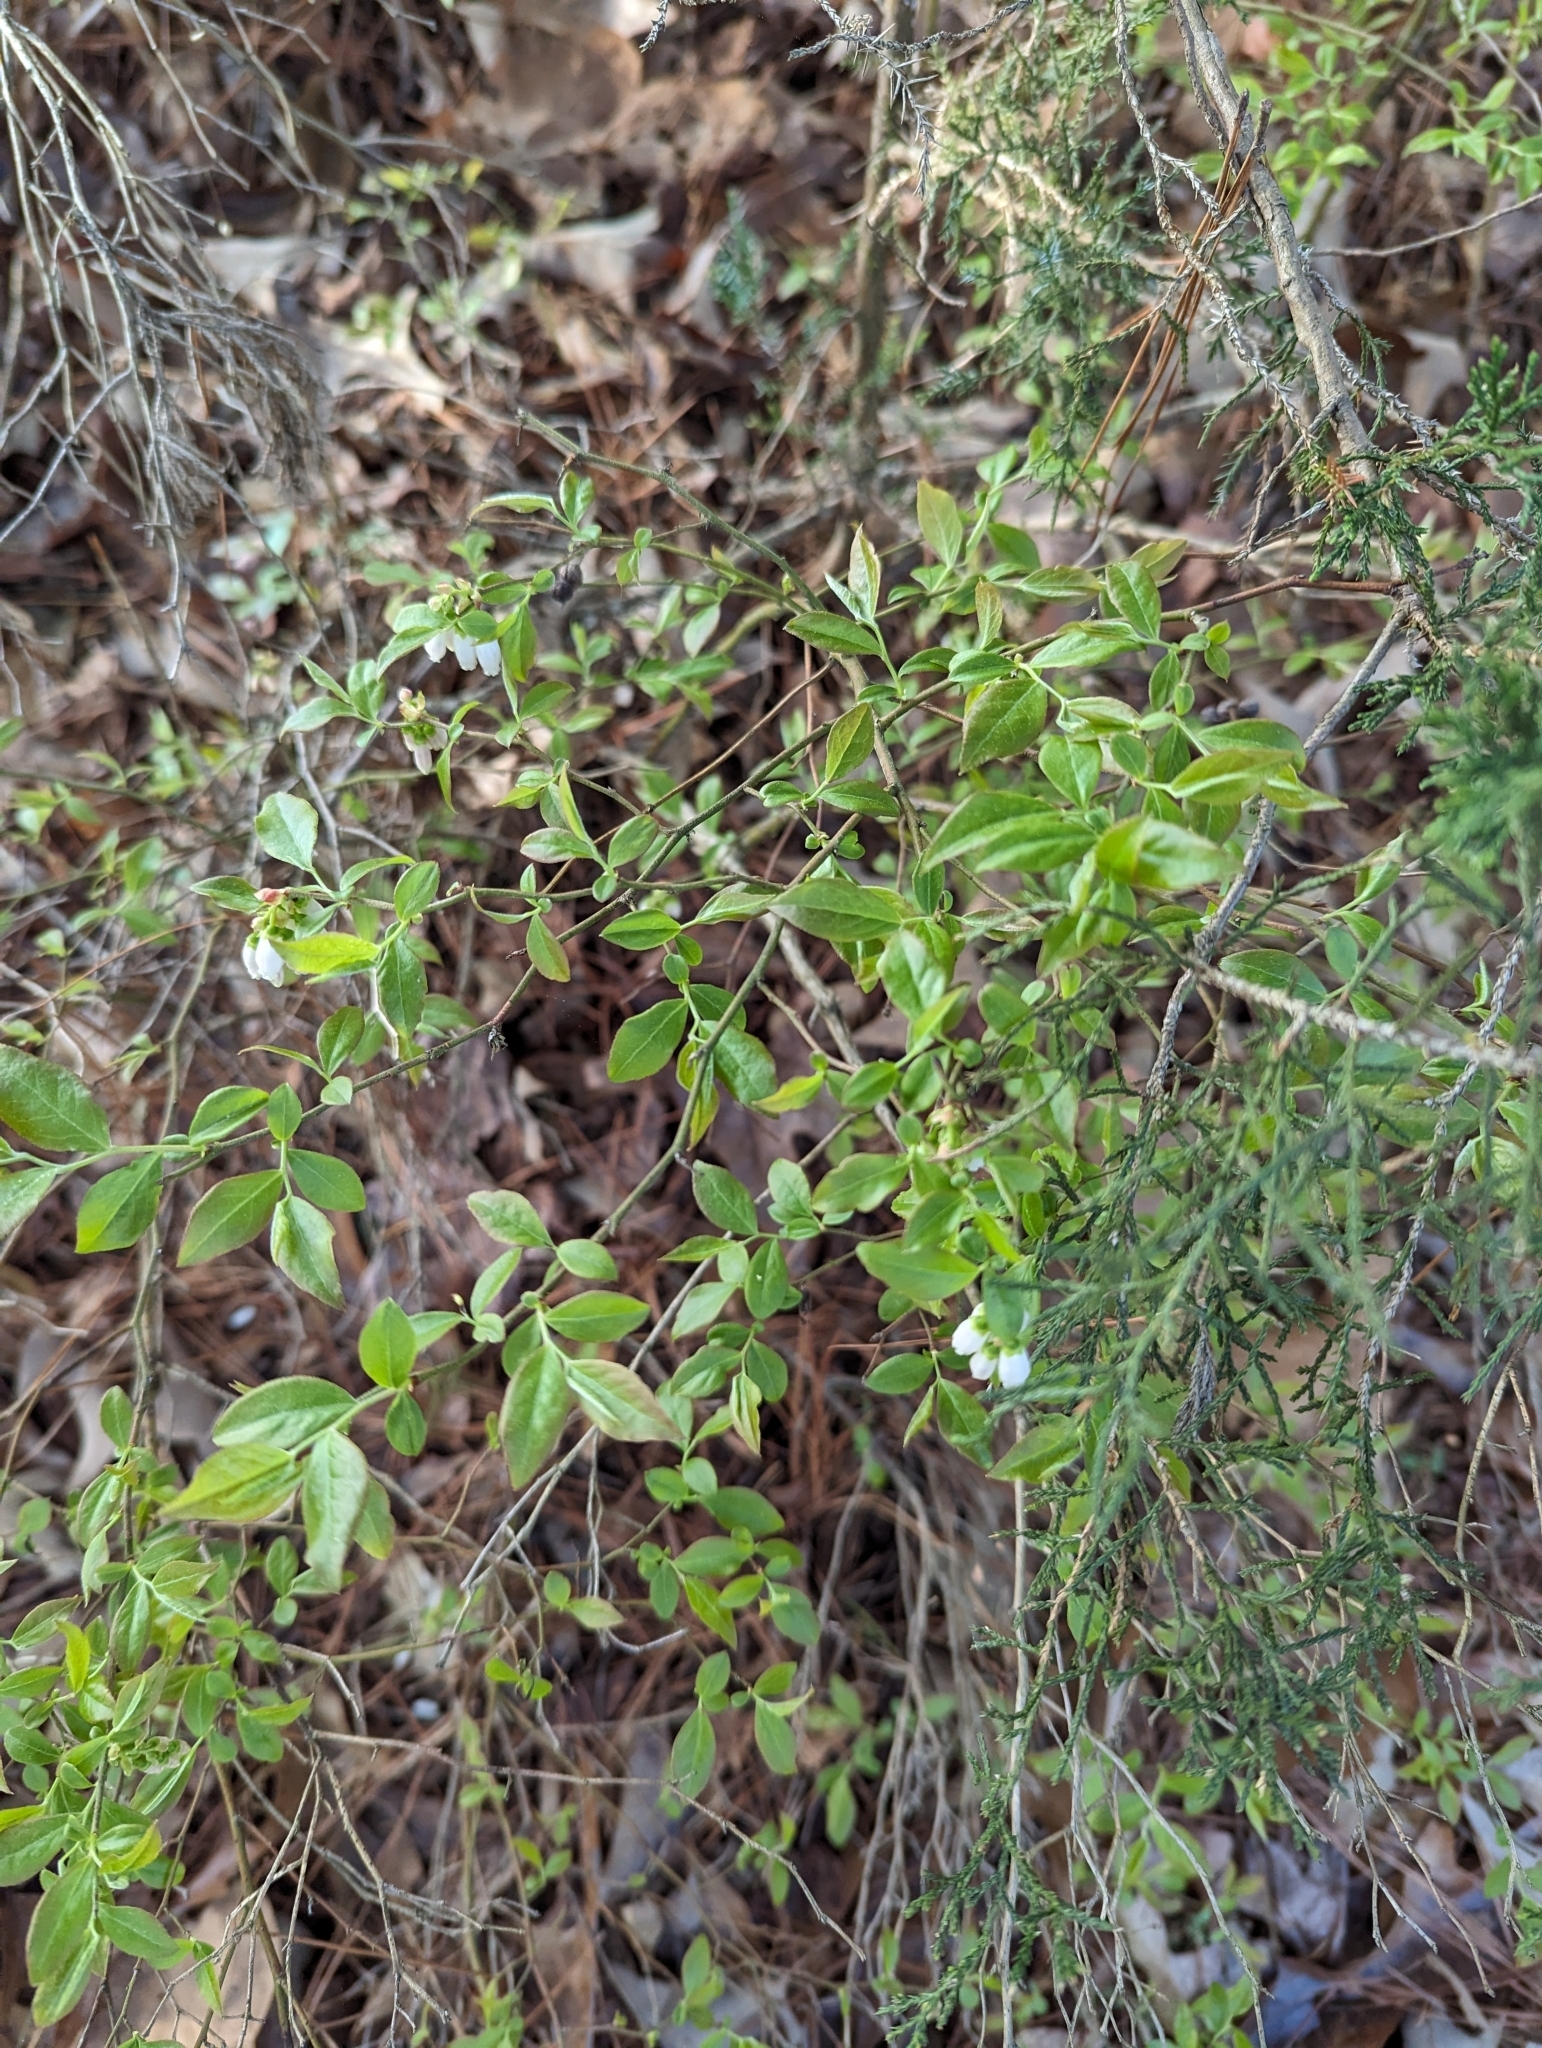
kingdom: Plantae
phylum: Tracheophyta
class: Magnoliopsida
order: Ericales
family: Ericaceae
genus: Vaccinium
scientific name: Vaccinium
